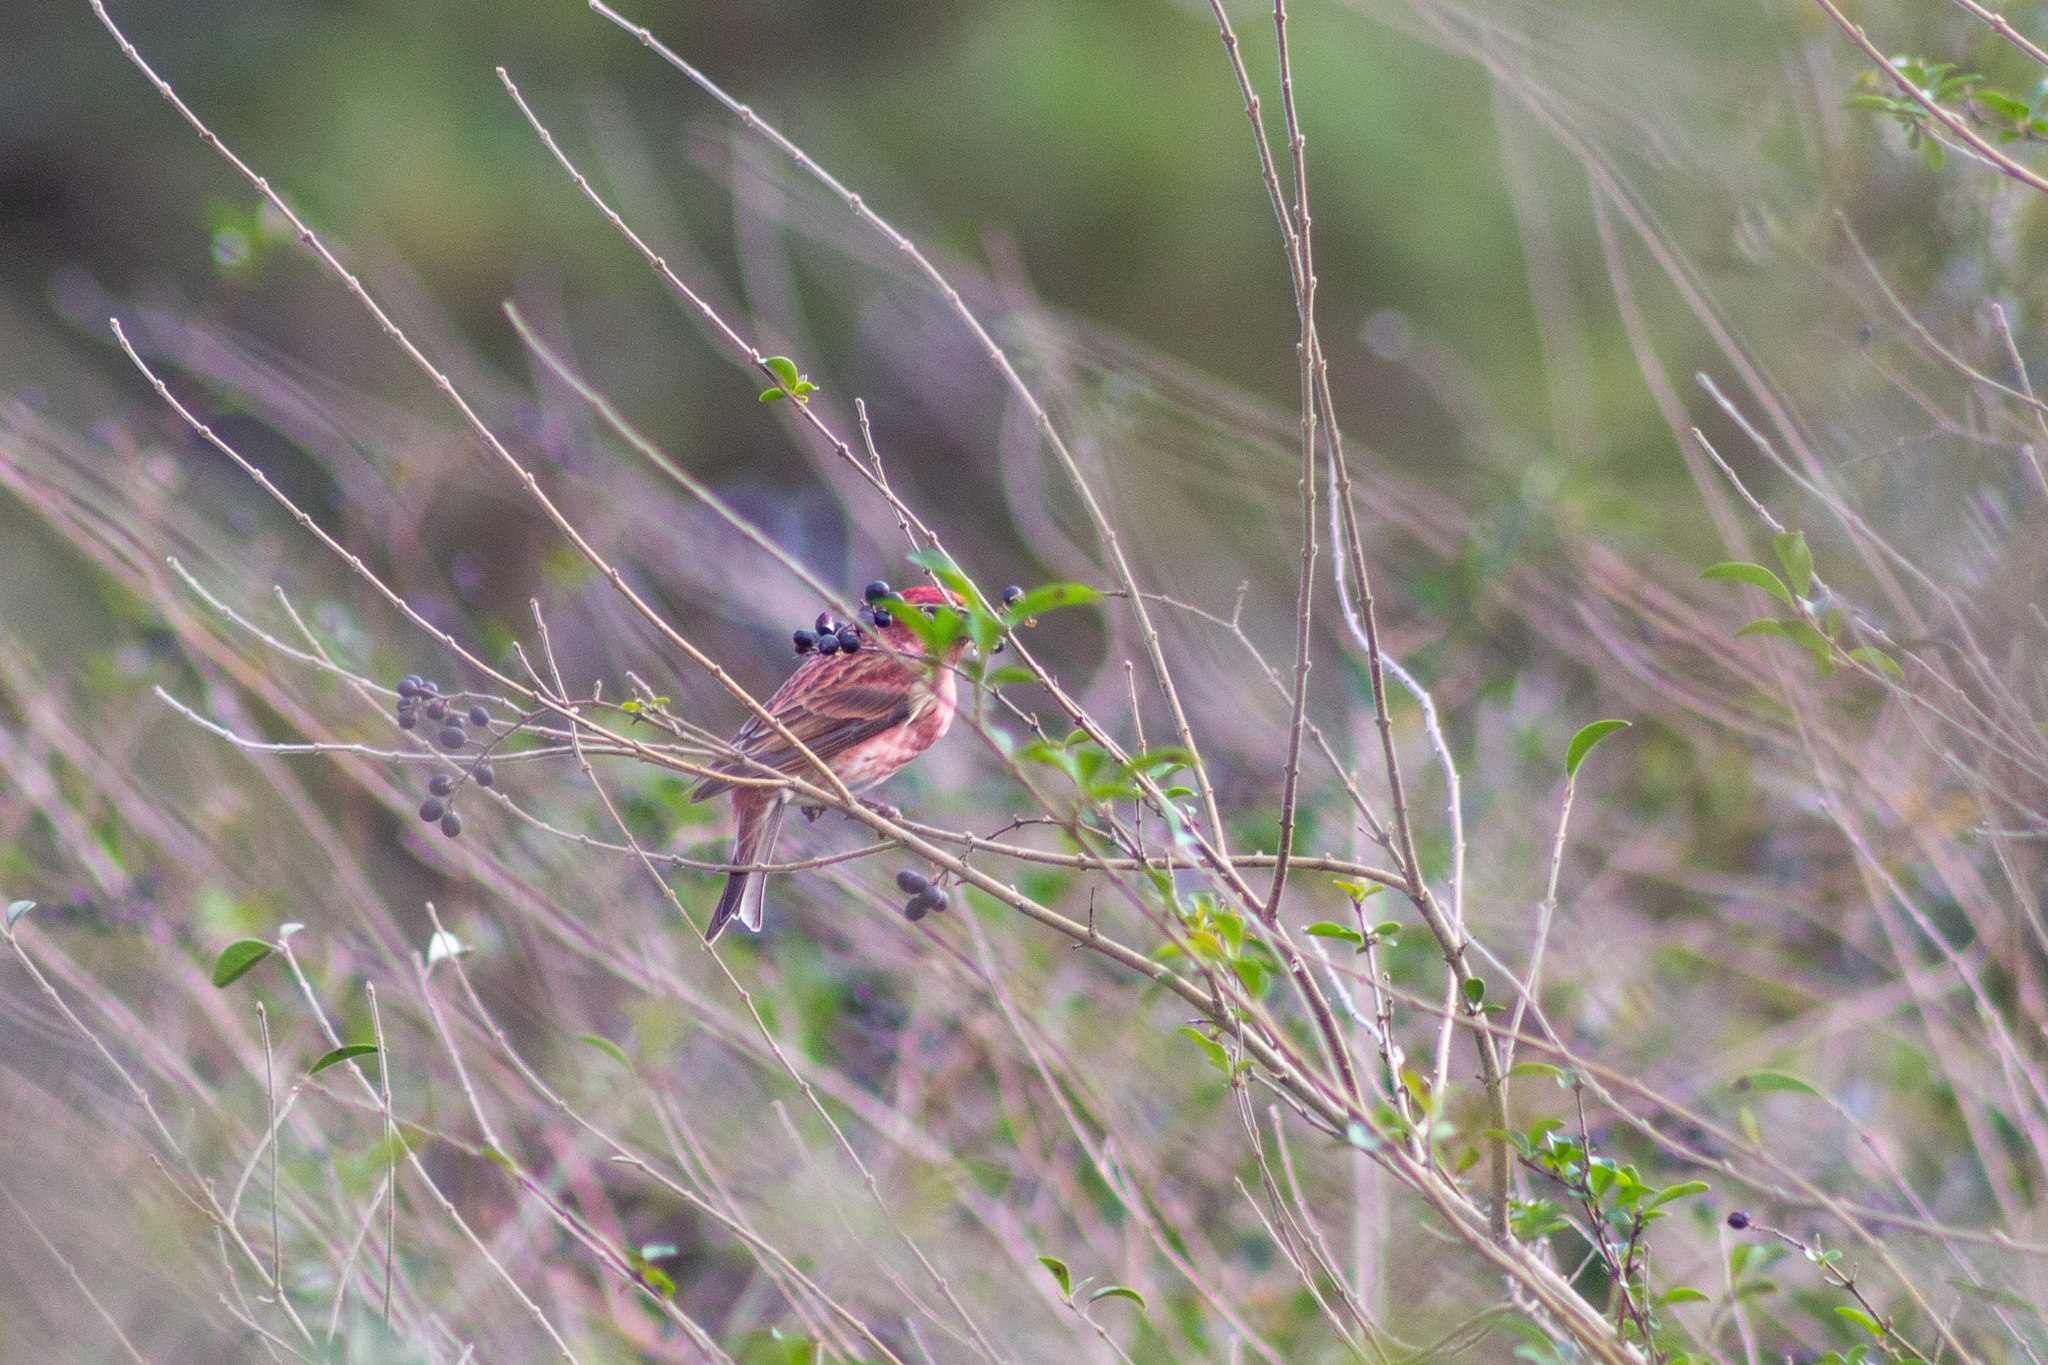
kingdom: Animalia
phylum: Chordata
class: Aves
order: Passeriformes
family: Fringillidae
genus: Haemorhous
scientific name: Haemorhous purpureus
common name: Purple finch
